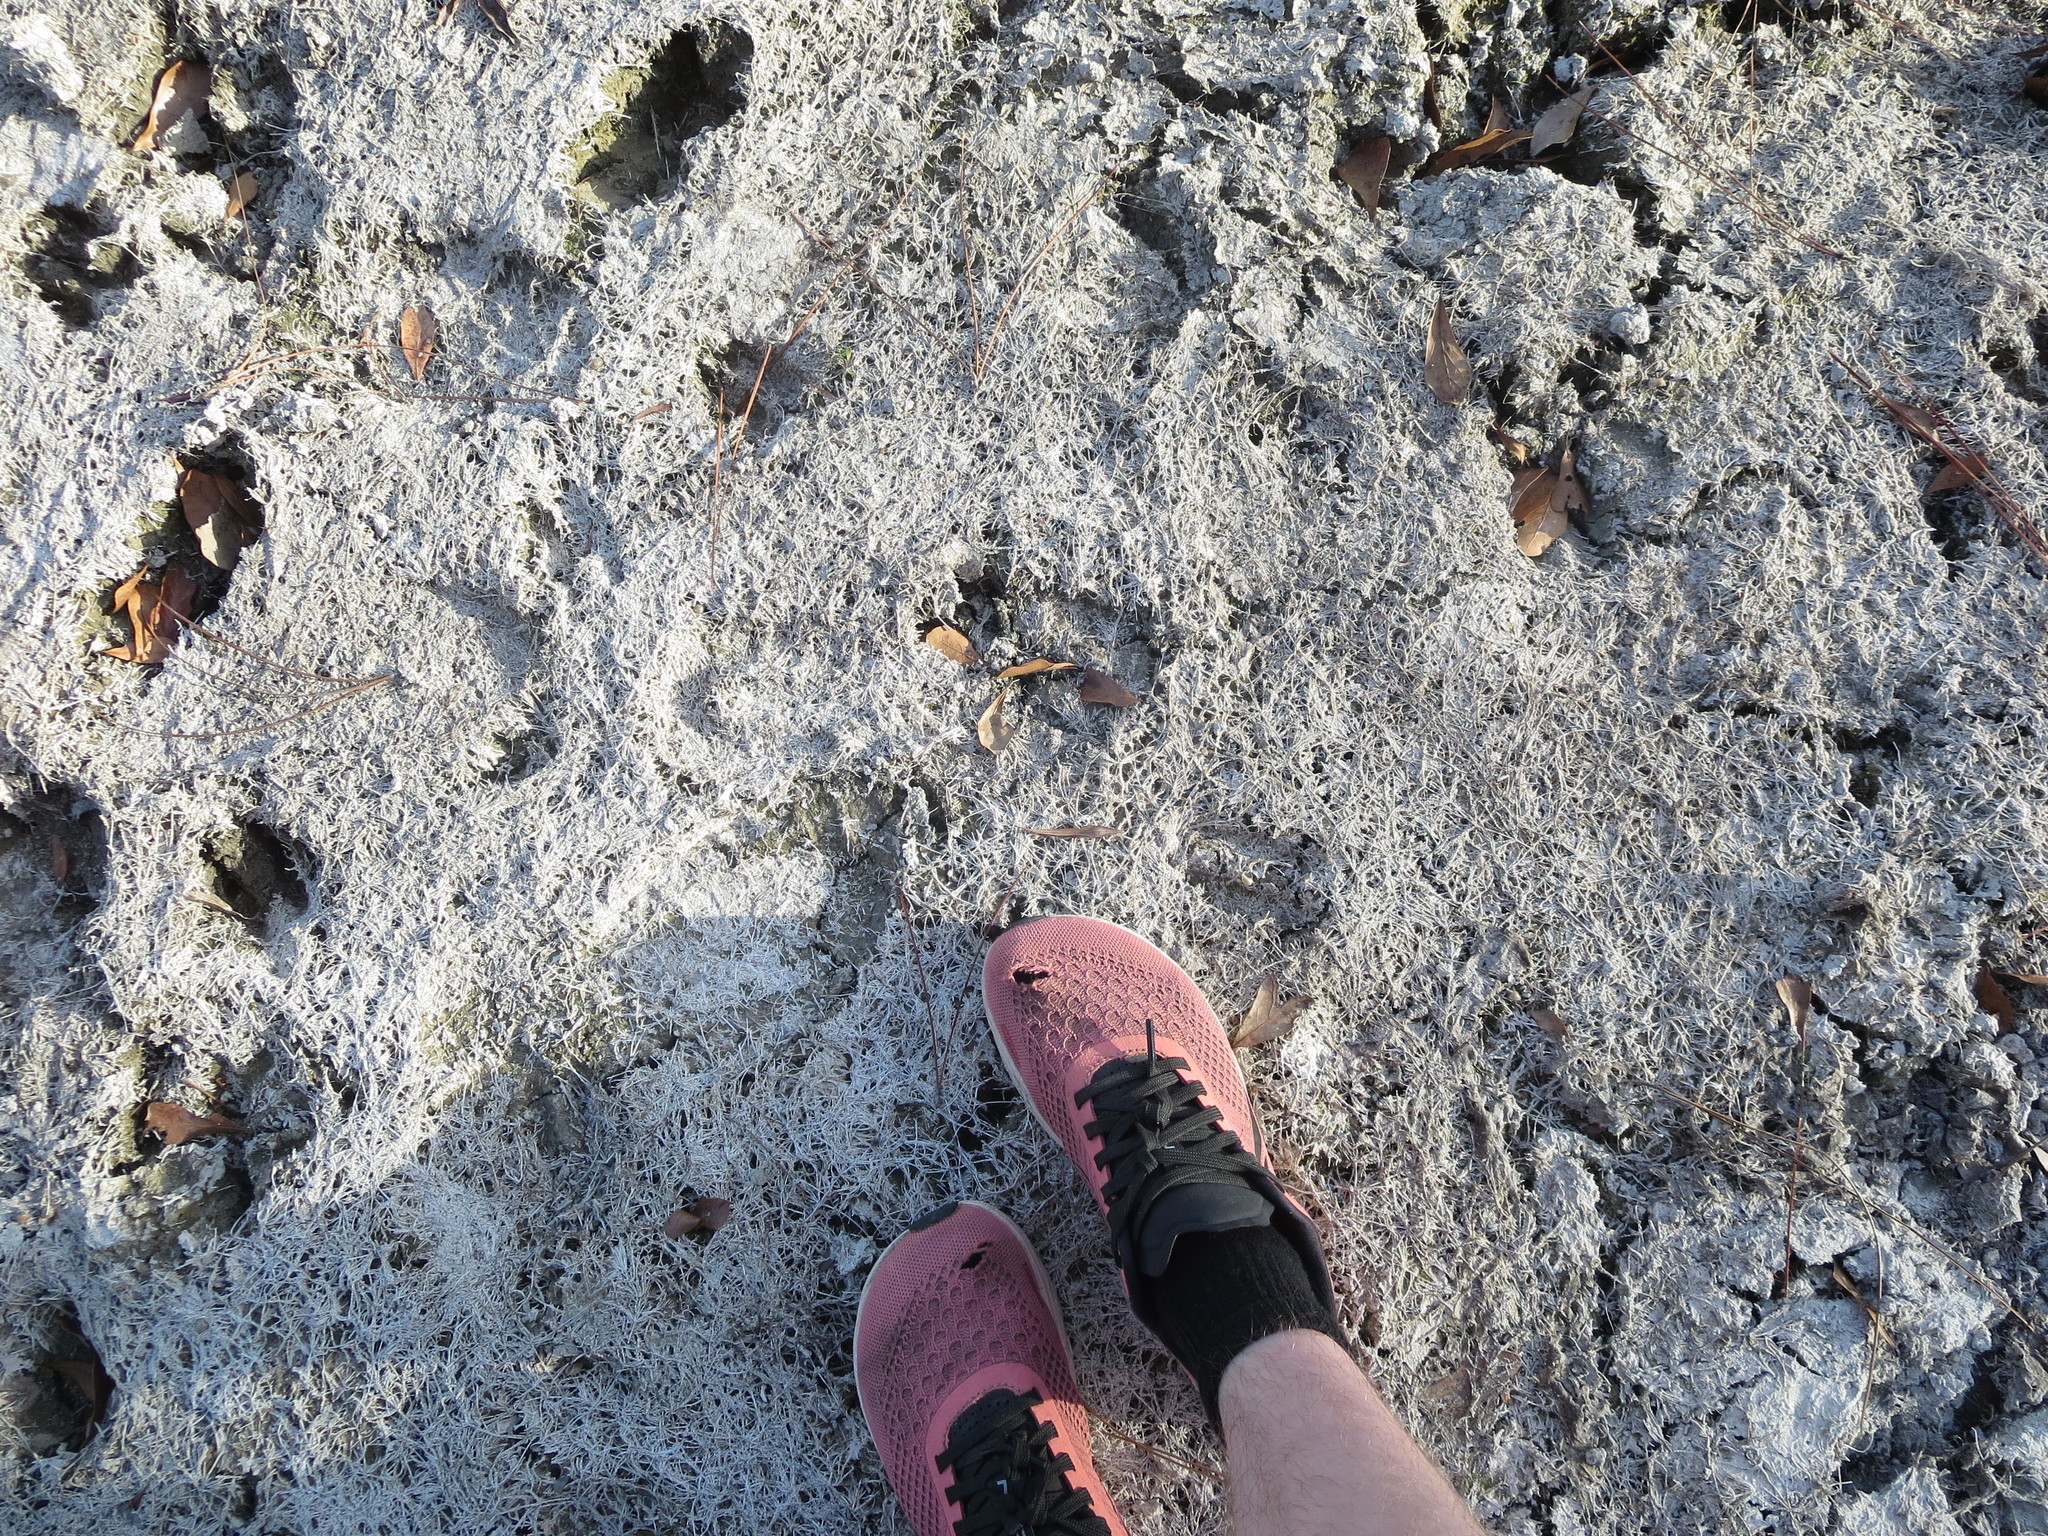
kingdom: Animalia
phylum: Chordata
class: Mammalia
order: Artiodactyla
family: Cervidae
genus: Odocoileus
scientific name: Odocoileus virginianus
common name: White-tailed deer
